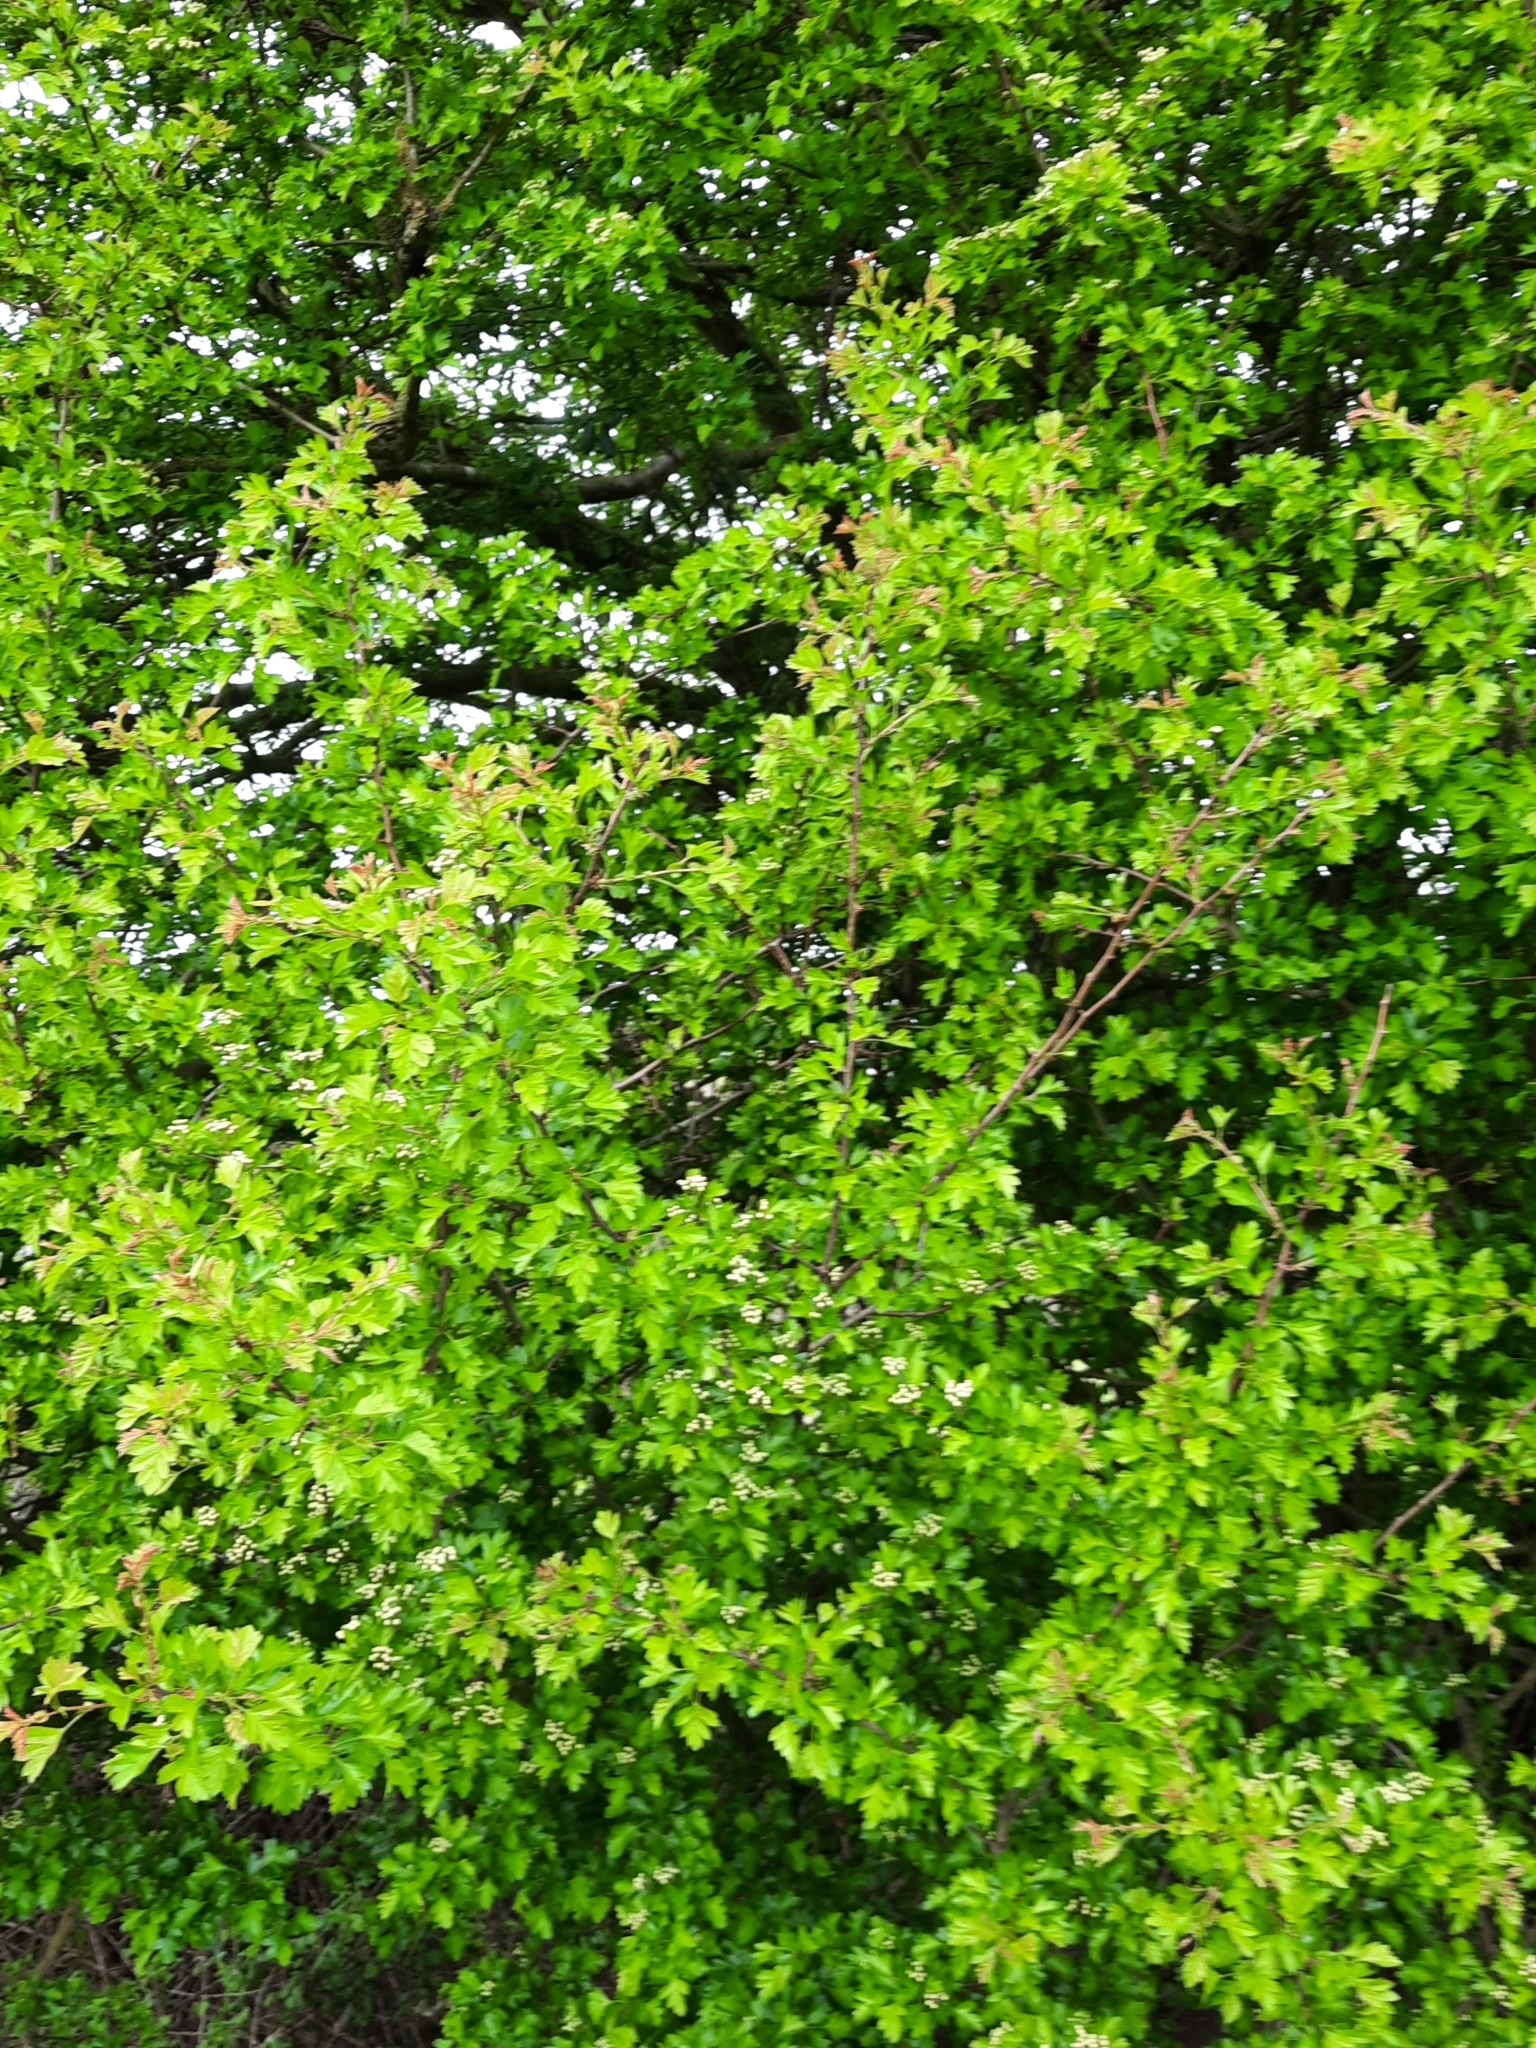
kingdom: Plantae
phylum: Tracheophyta
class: Magnoliopsida
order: Rosales
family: Rosaceae
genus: Crataegus
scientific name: Crataegus monogyna
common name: Hawthorn
